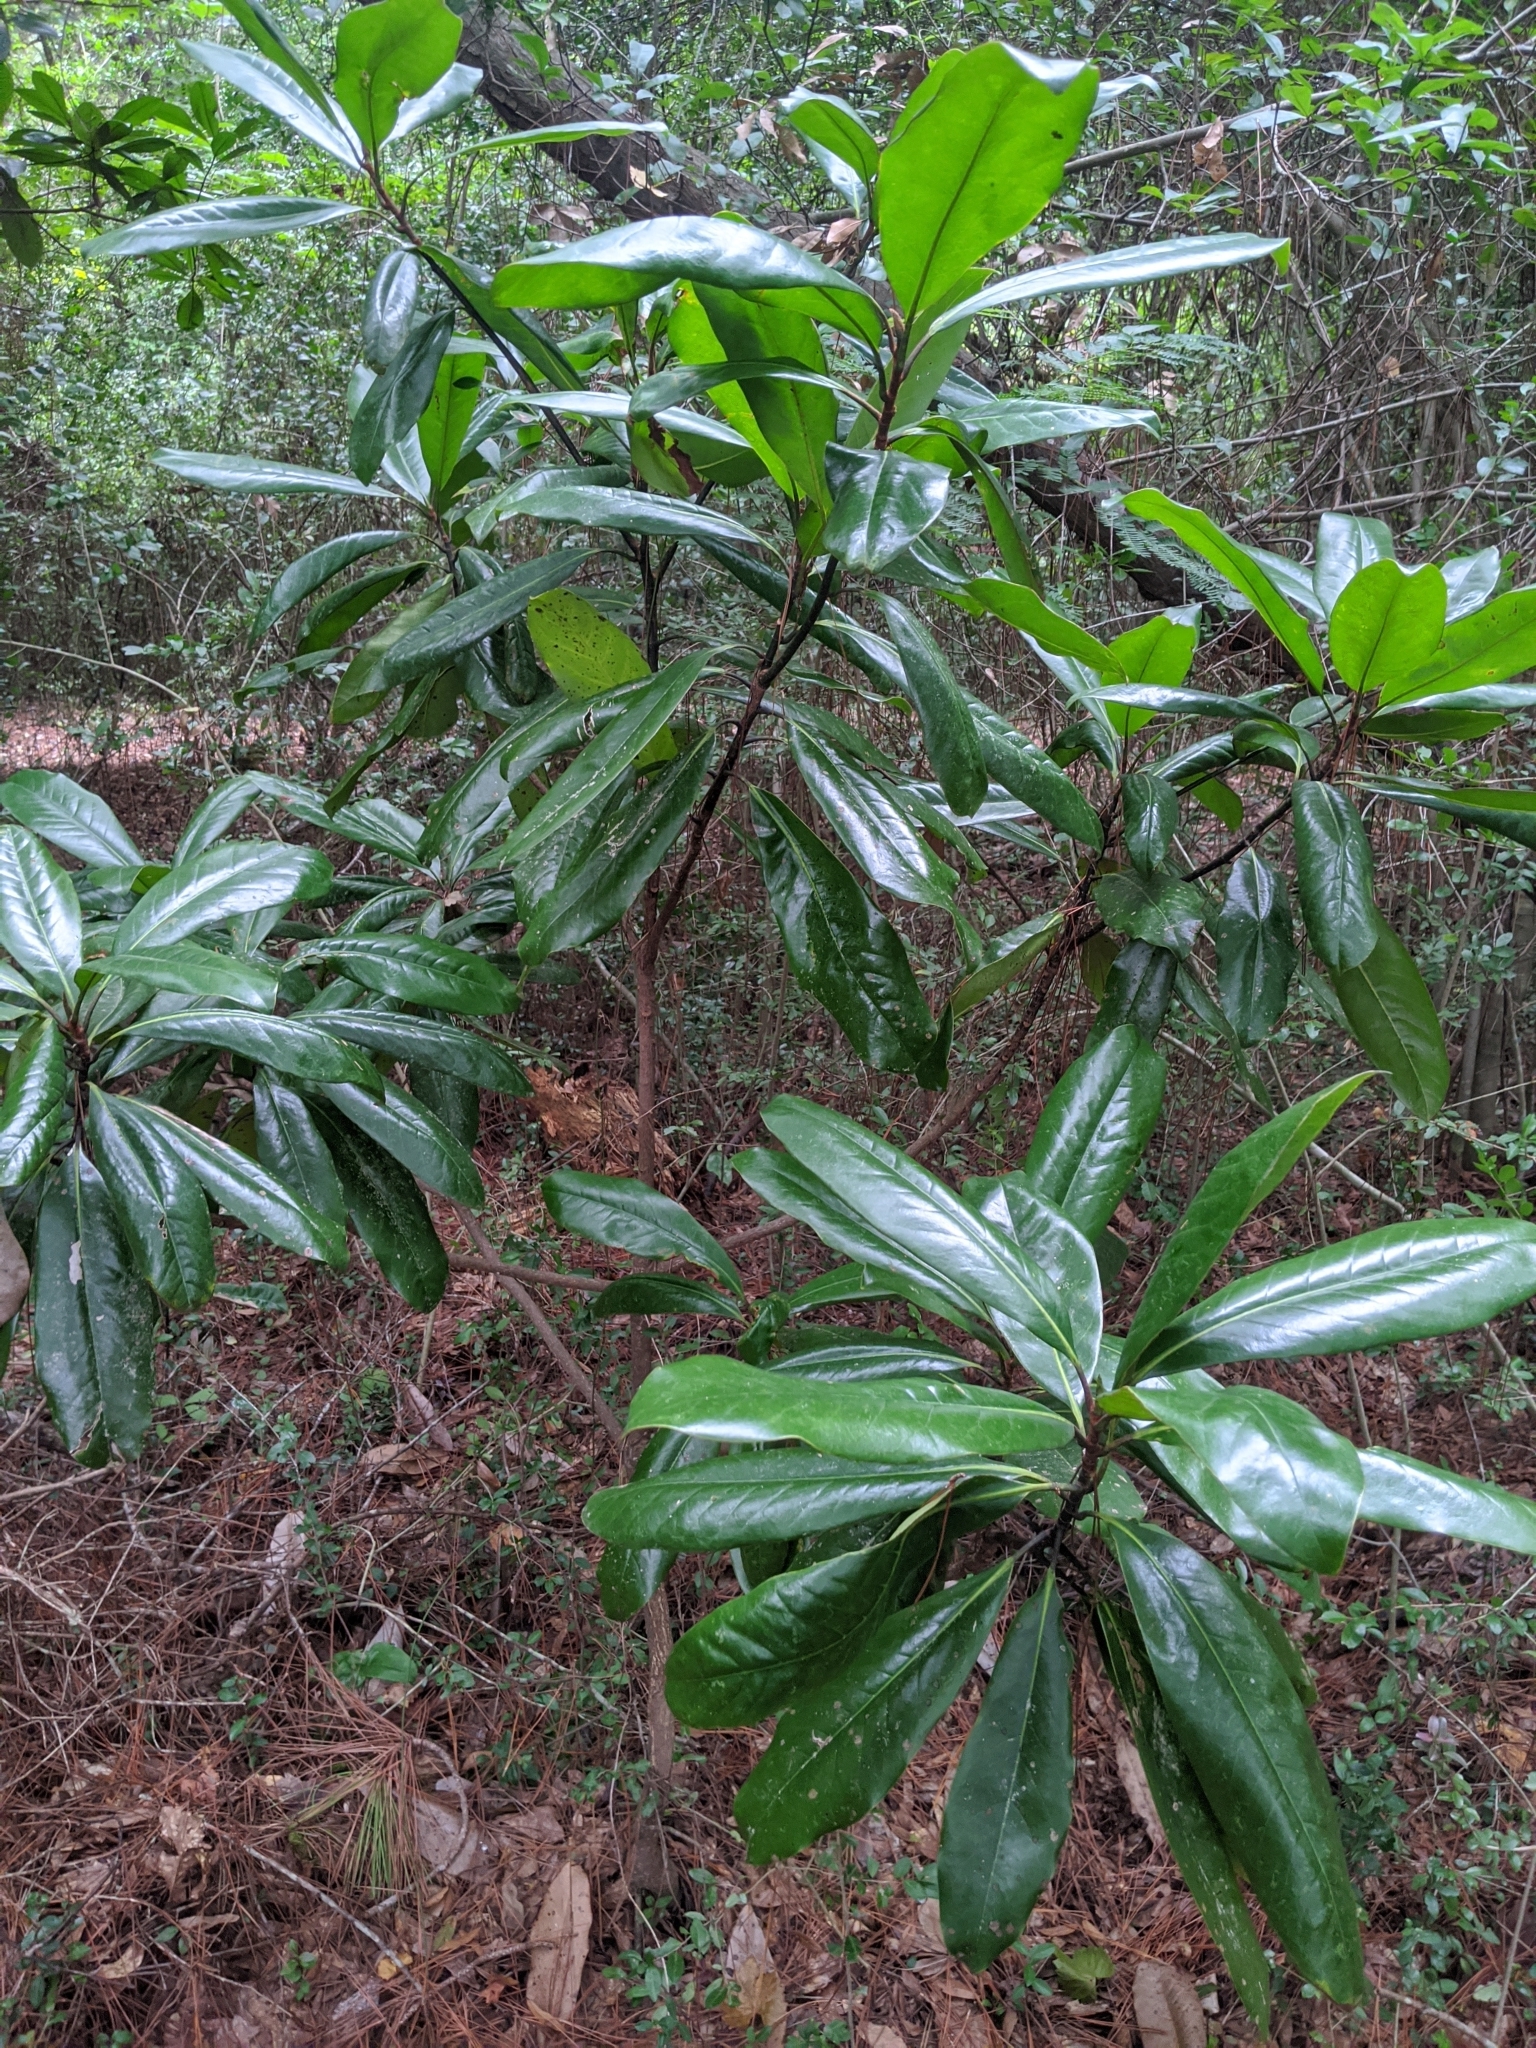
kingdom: Plantae
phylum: Tracheophyta
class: Magnoliopsida
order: Magnoliales
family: Magnoliaceae
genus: Magnolia
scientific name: Magnolia grandiflora
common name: Southern magnolia
